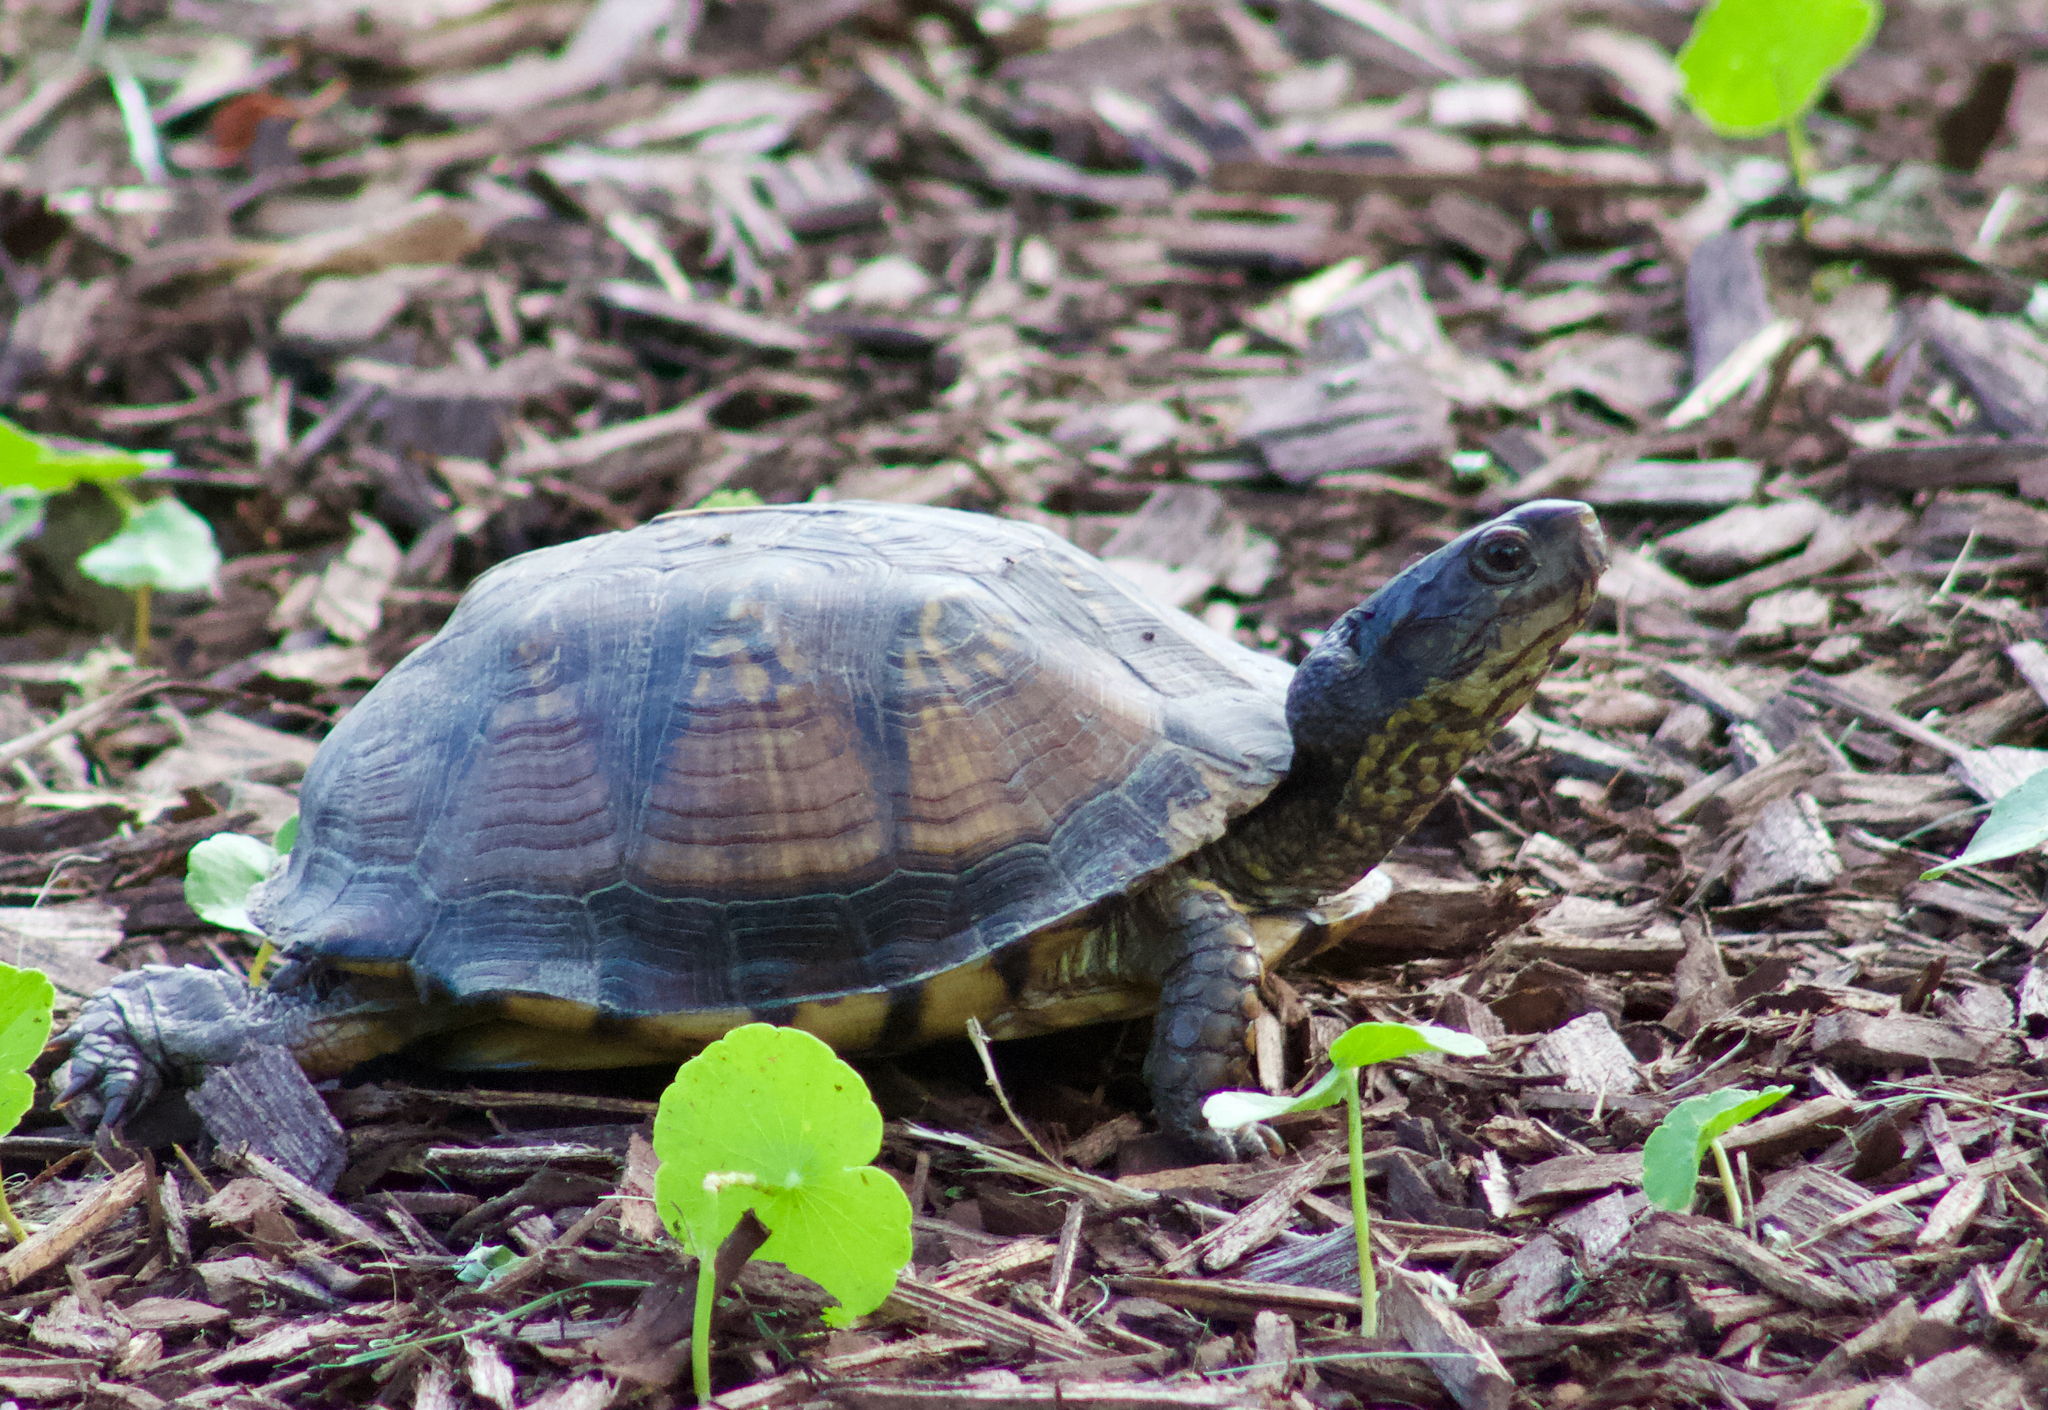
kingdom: Animalia
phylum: Chordata
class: Testudines
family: Emydidae
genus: Terrapene
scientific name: Terrapene carolina
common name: Common box turtle
